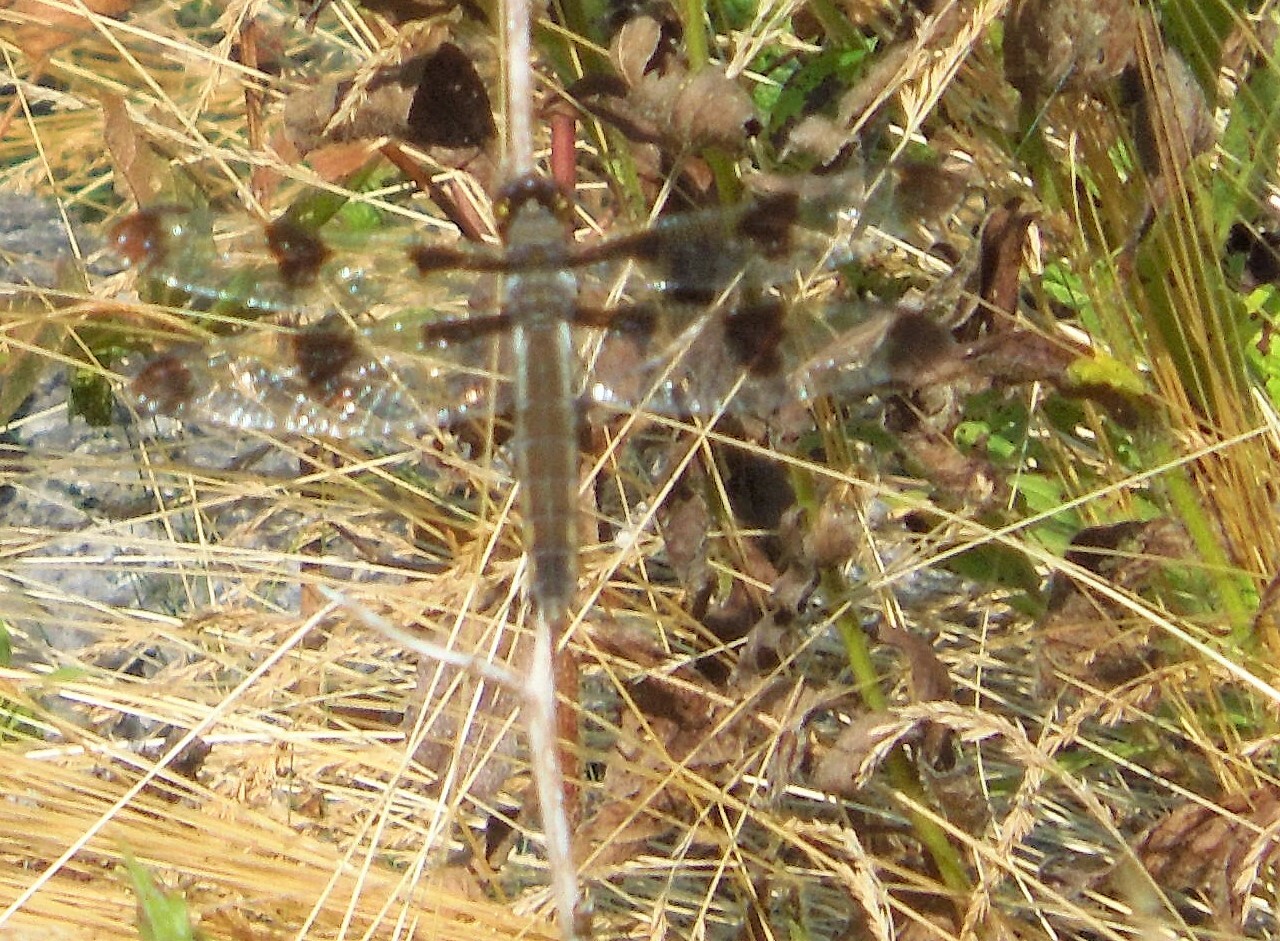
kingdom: Animalia
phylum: Arthropoda
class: Insecta
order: Odonata
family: Libellulidae
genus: Libellula
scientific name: Libellula pulchella
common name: Twelve-spotted skimmer
